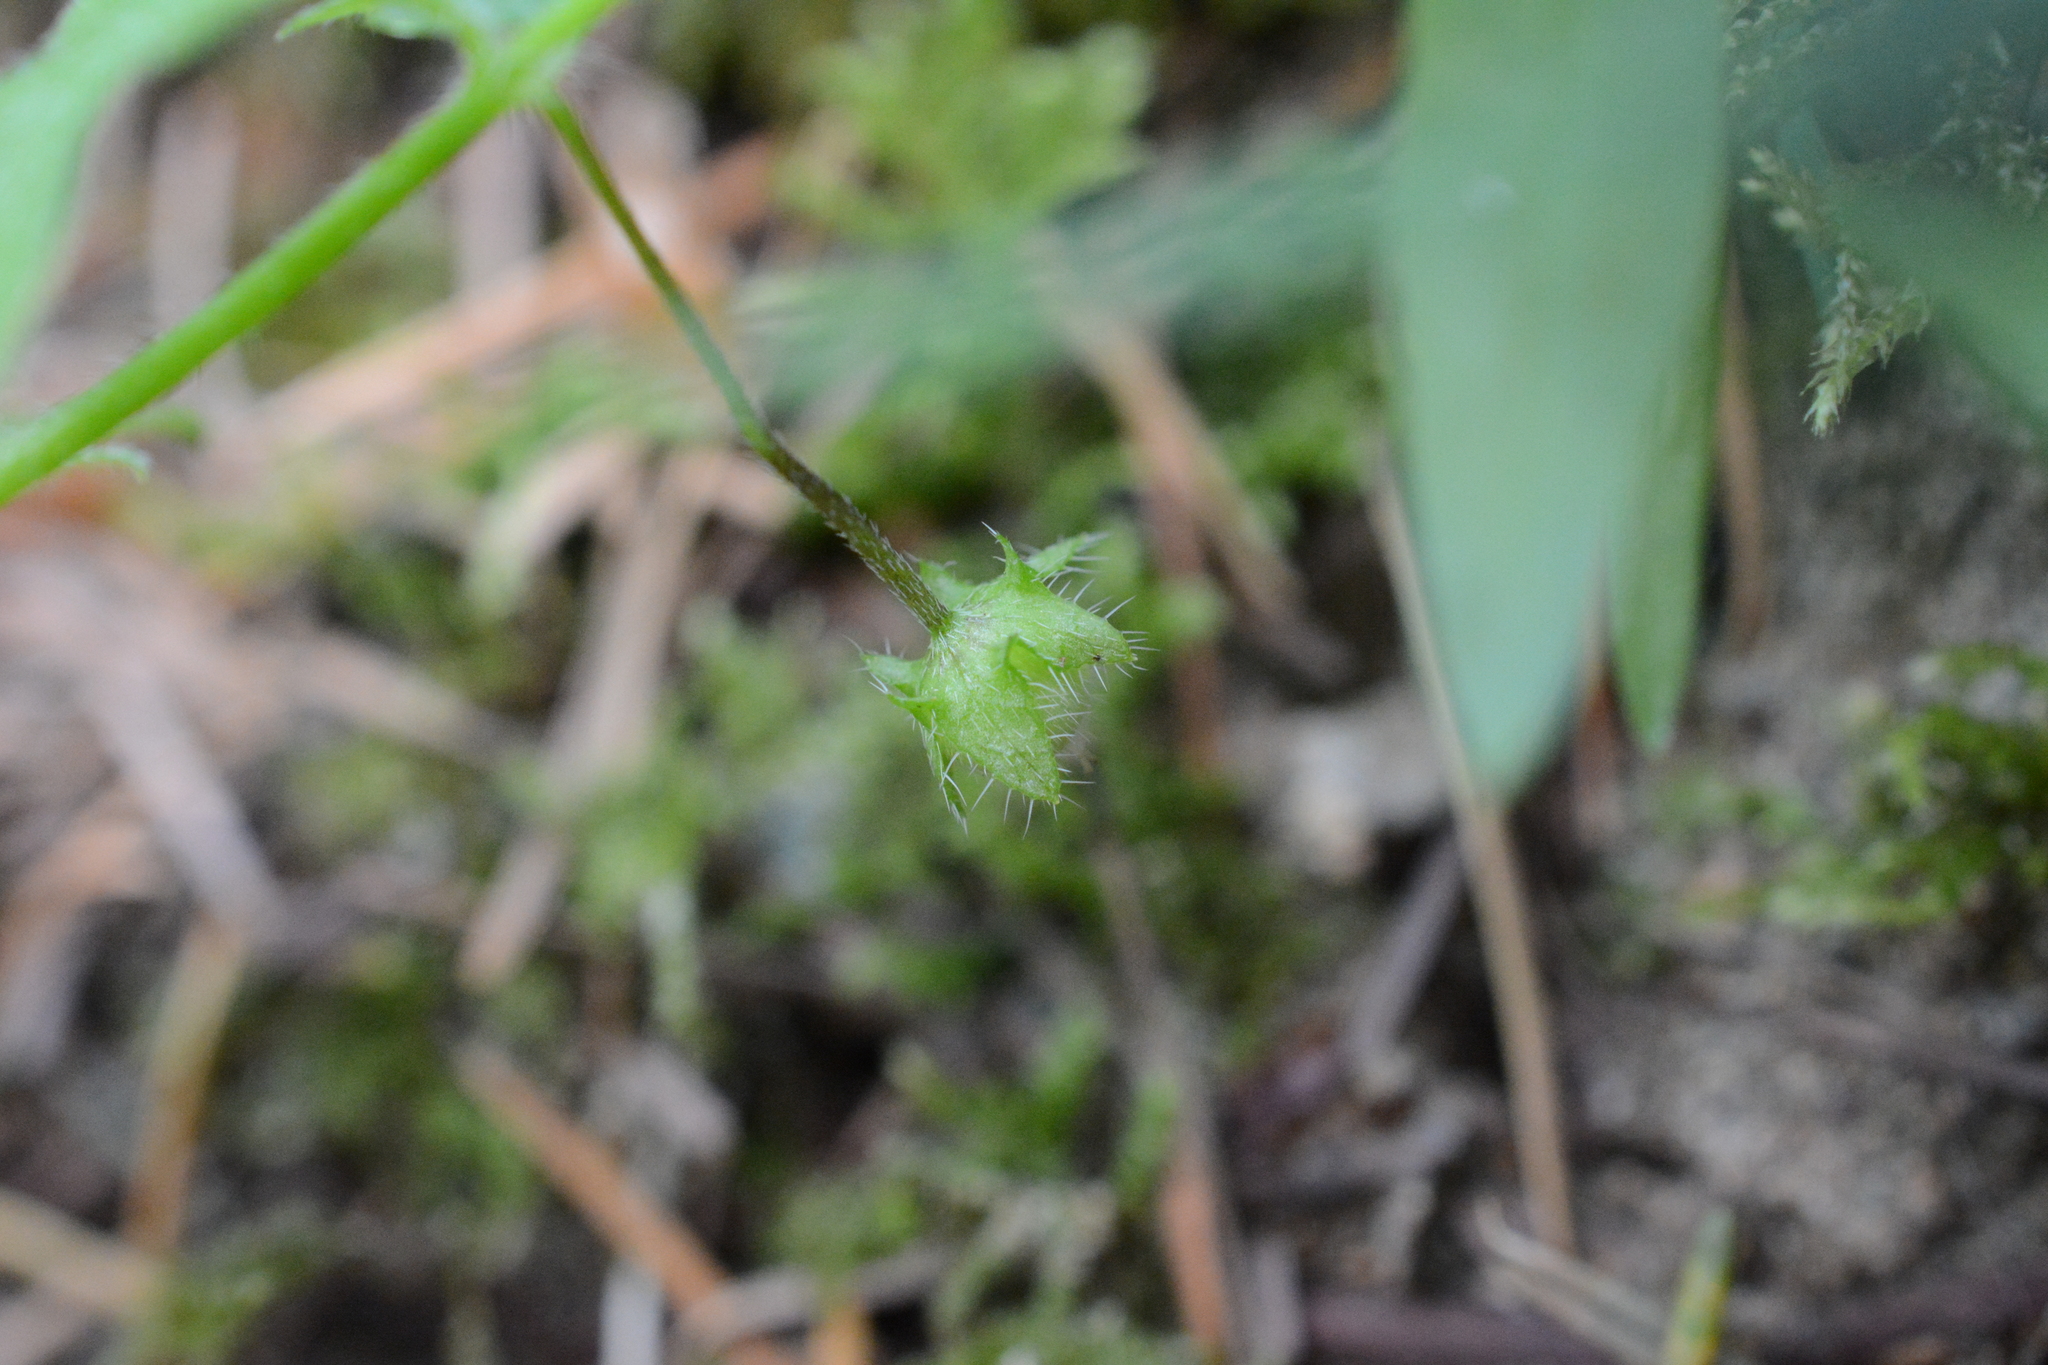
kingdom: Plantae
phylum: Tracheophyta
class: Magnoliopsida
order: Boraginales
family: Hydrophyllaceae
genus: Nemophila
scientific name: Nemophila parviflora
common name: Small-flowered baby-blue-eyes
